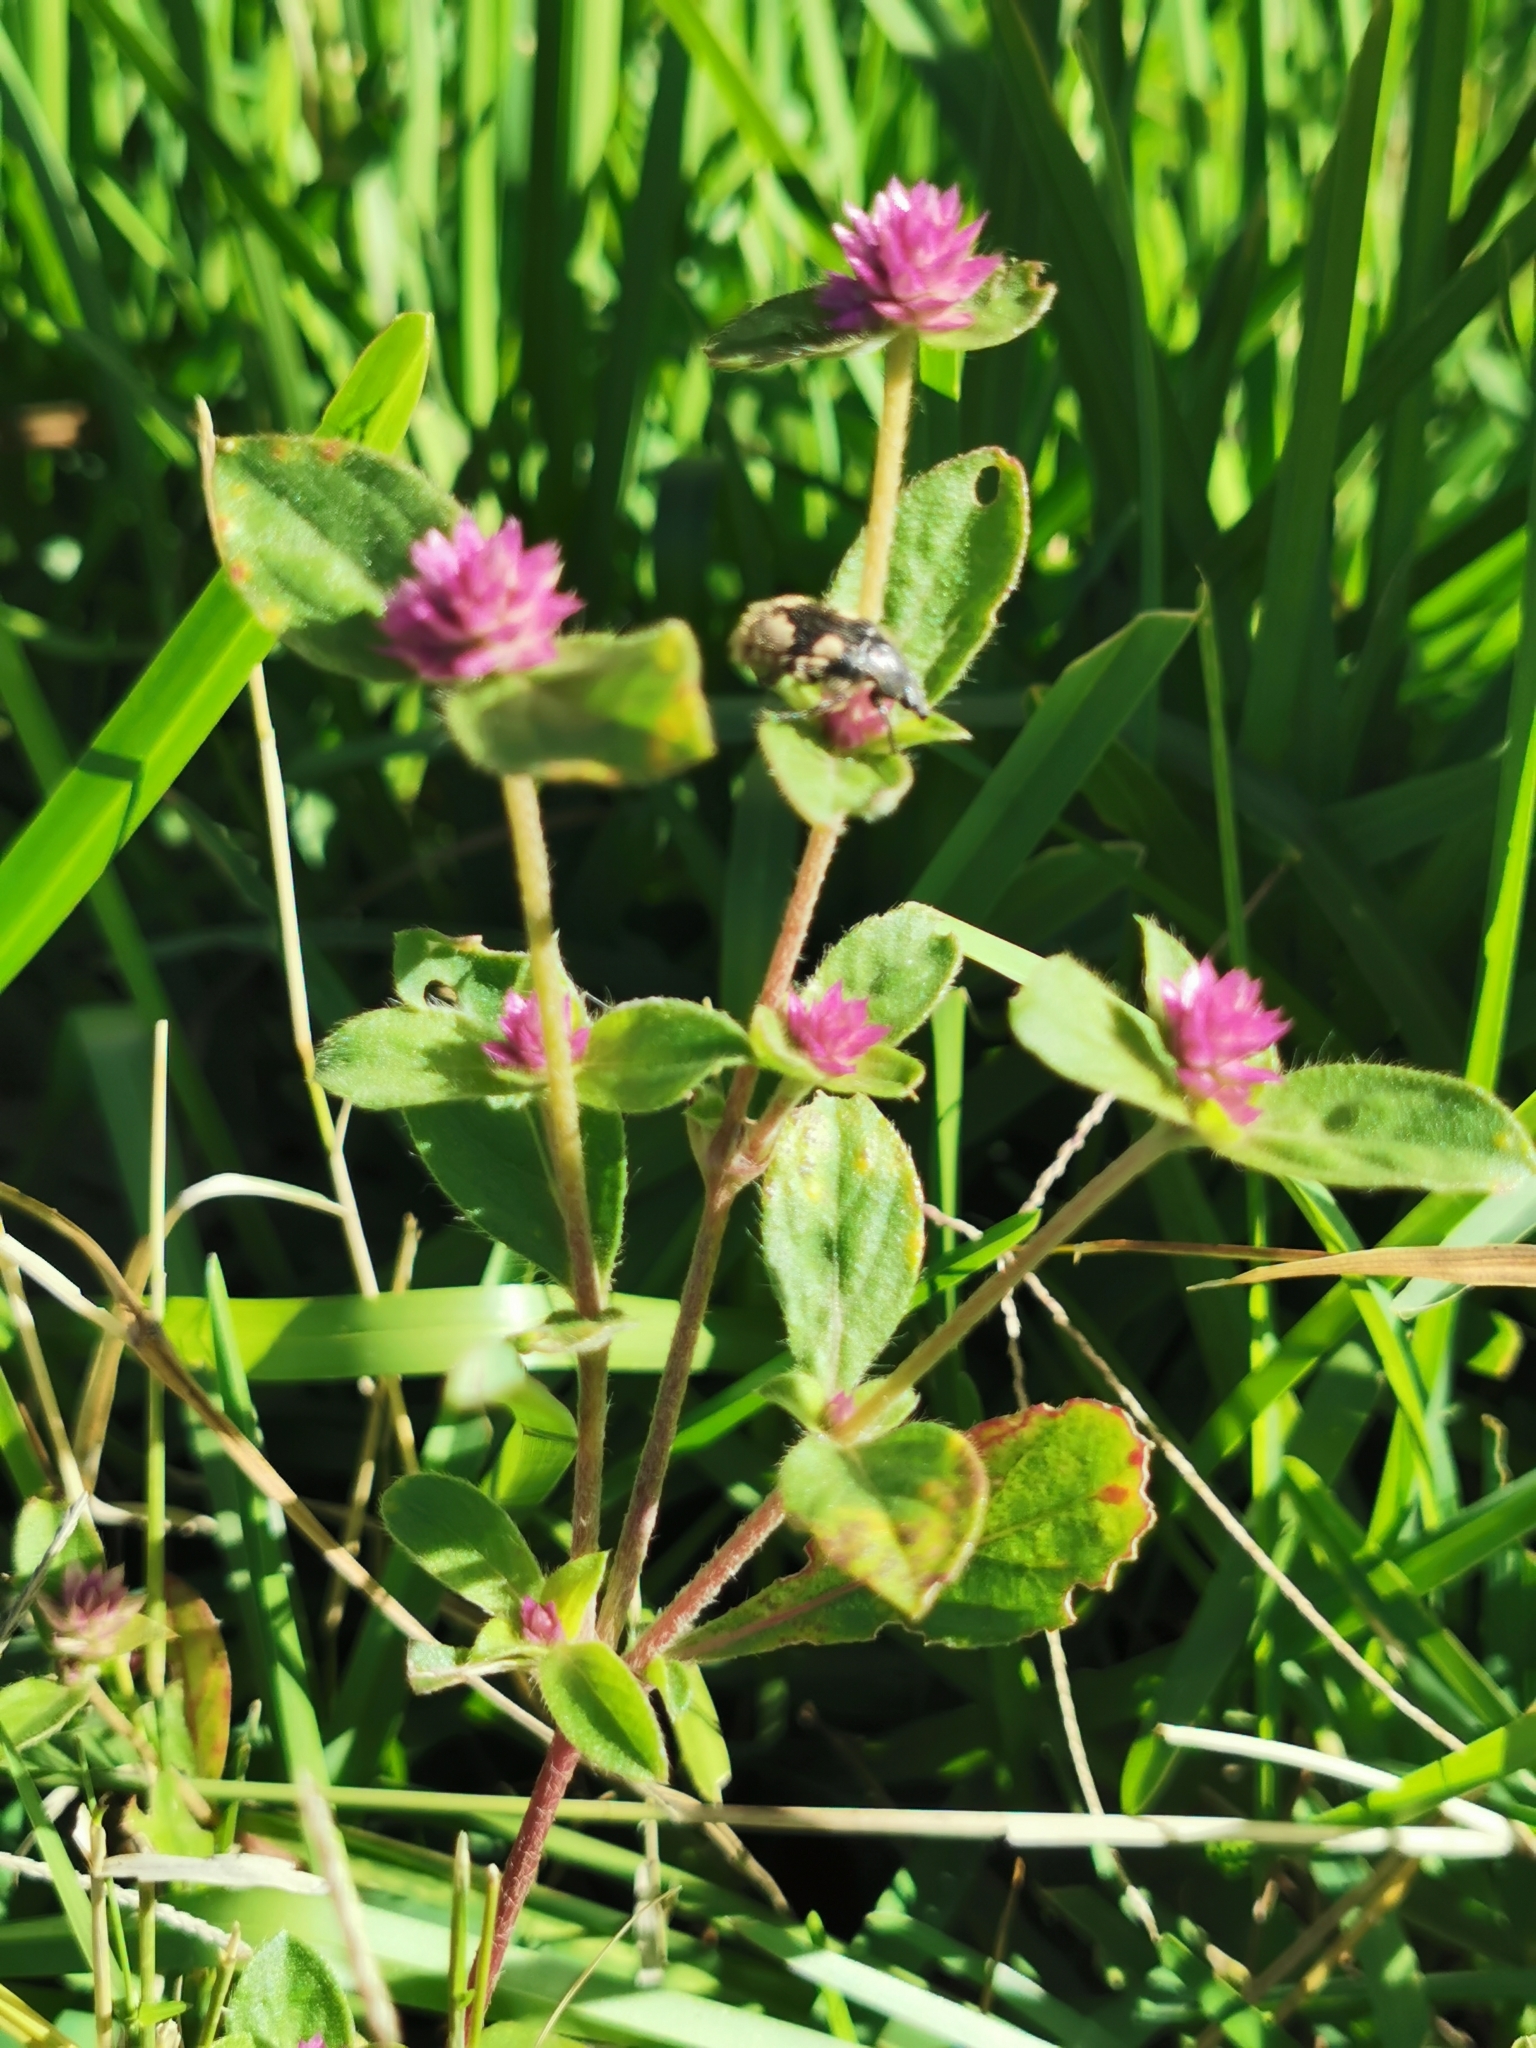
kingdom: Plantae
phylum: Tracheophyta
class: Magnoliopsida
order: Caryophyllales
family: Amaranthaceae
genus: Gomphrena
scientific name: Gomphrena serrata
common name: Arrasa con todo
